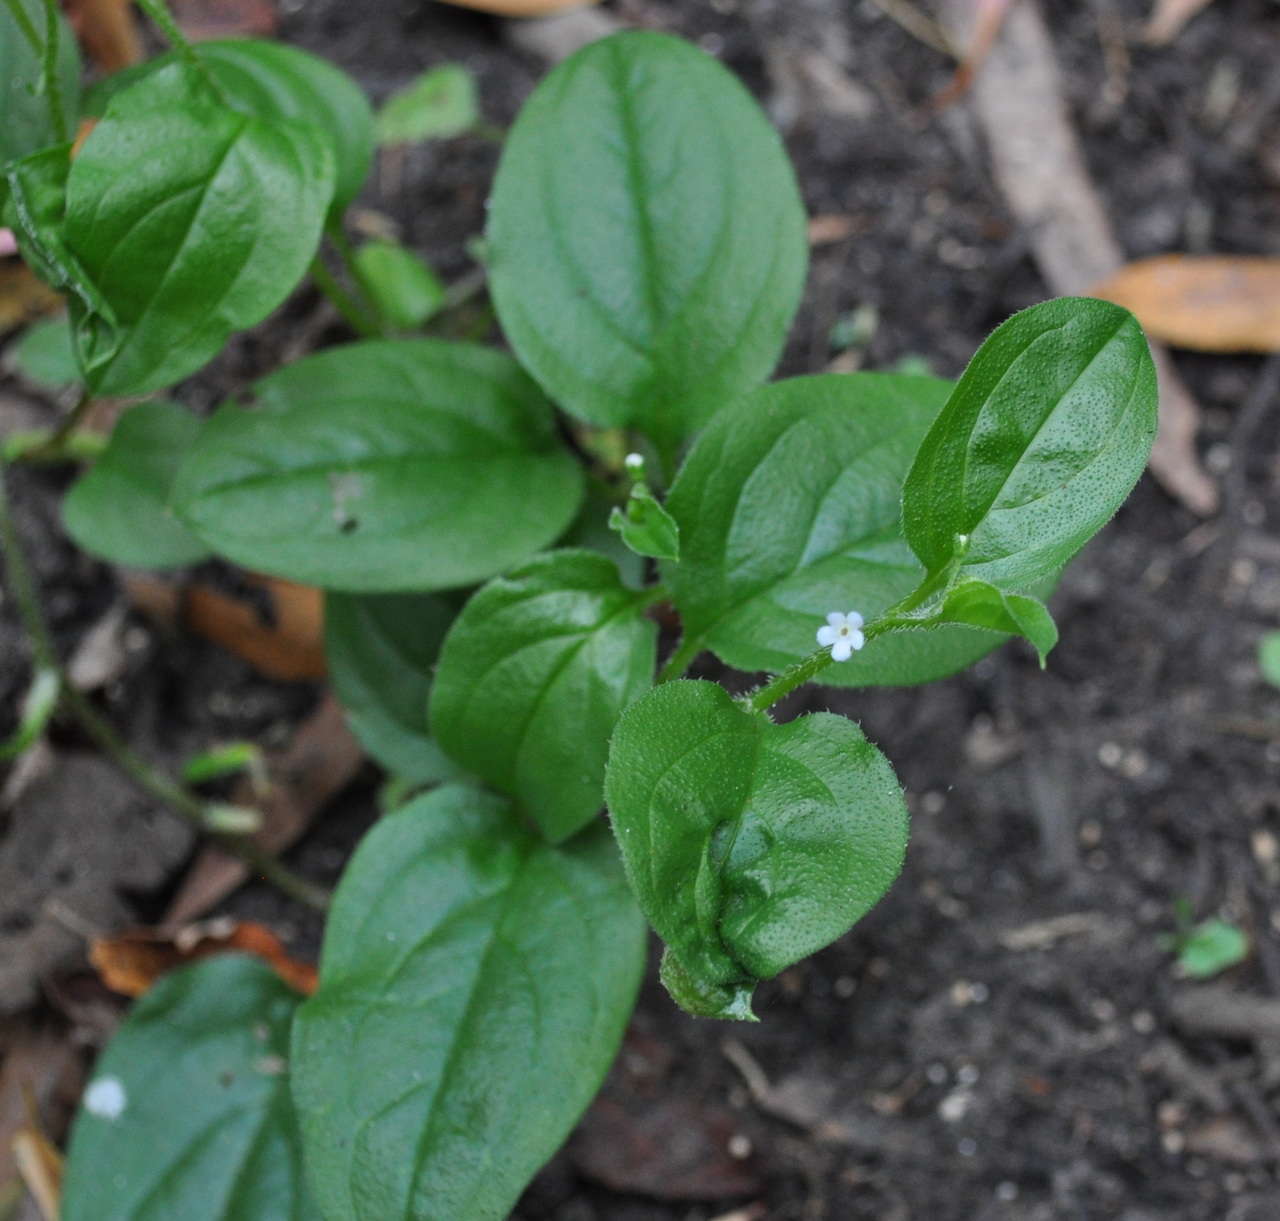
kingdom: Plantae
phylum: Tracheophyta
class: Magnoliopsida
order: Boraginales
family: Boraginaceae
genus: Hackelia
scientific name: Hackelia latifolia
